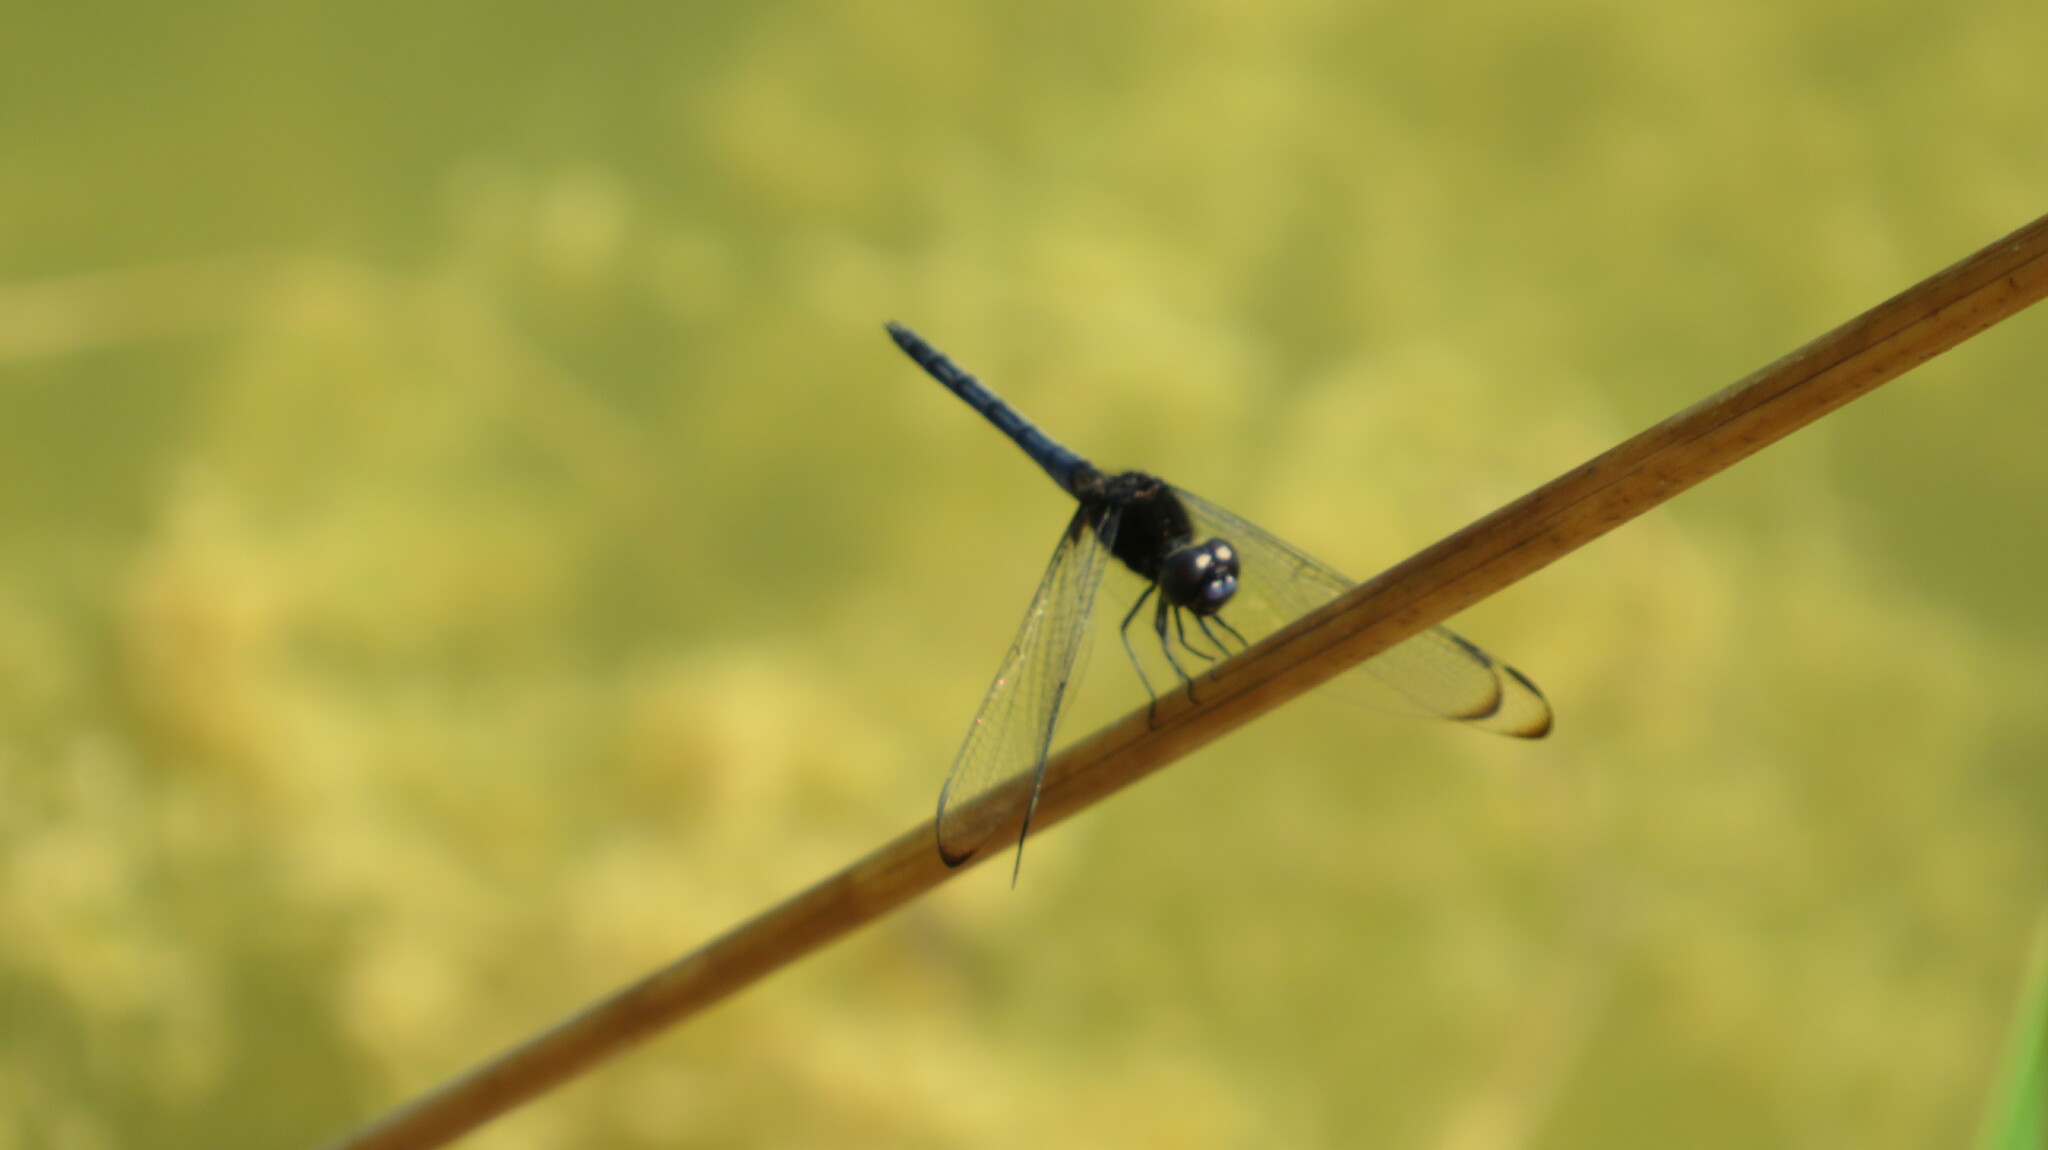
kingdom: Animalia
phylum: Arthropoda
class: Insecta
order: Odonata
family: Libellulidae
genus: Indothemis
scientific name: Indothemis limbata
